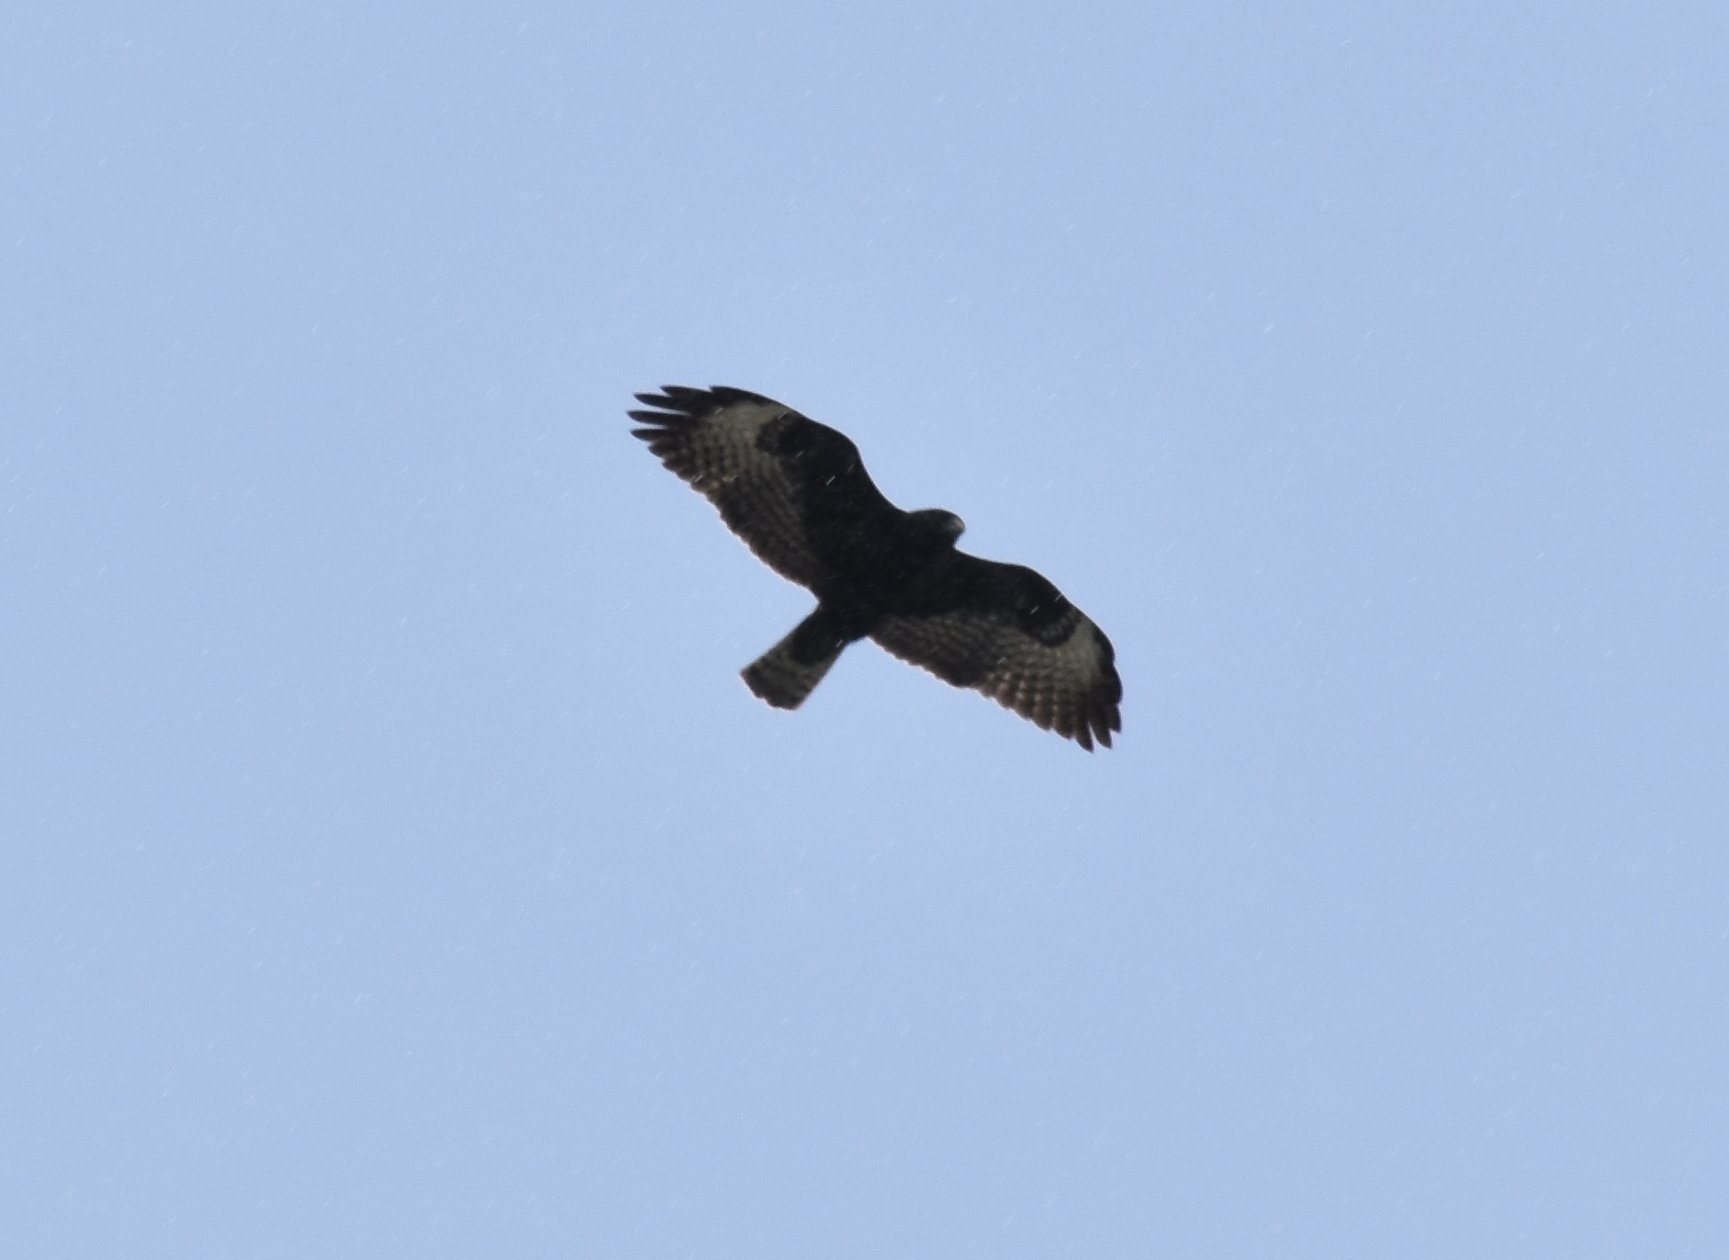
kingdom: Animalia
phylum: Chordata
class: Aves
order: Accipitriformes
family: Accipitridae
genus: Buteo
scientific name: Buteo brachyurus
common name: Short-tailed hawk
